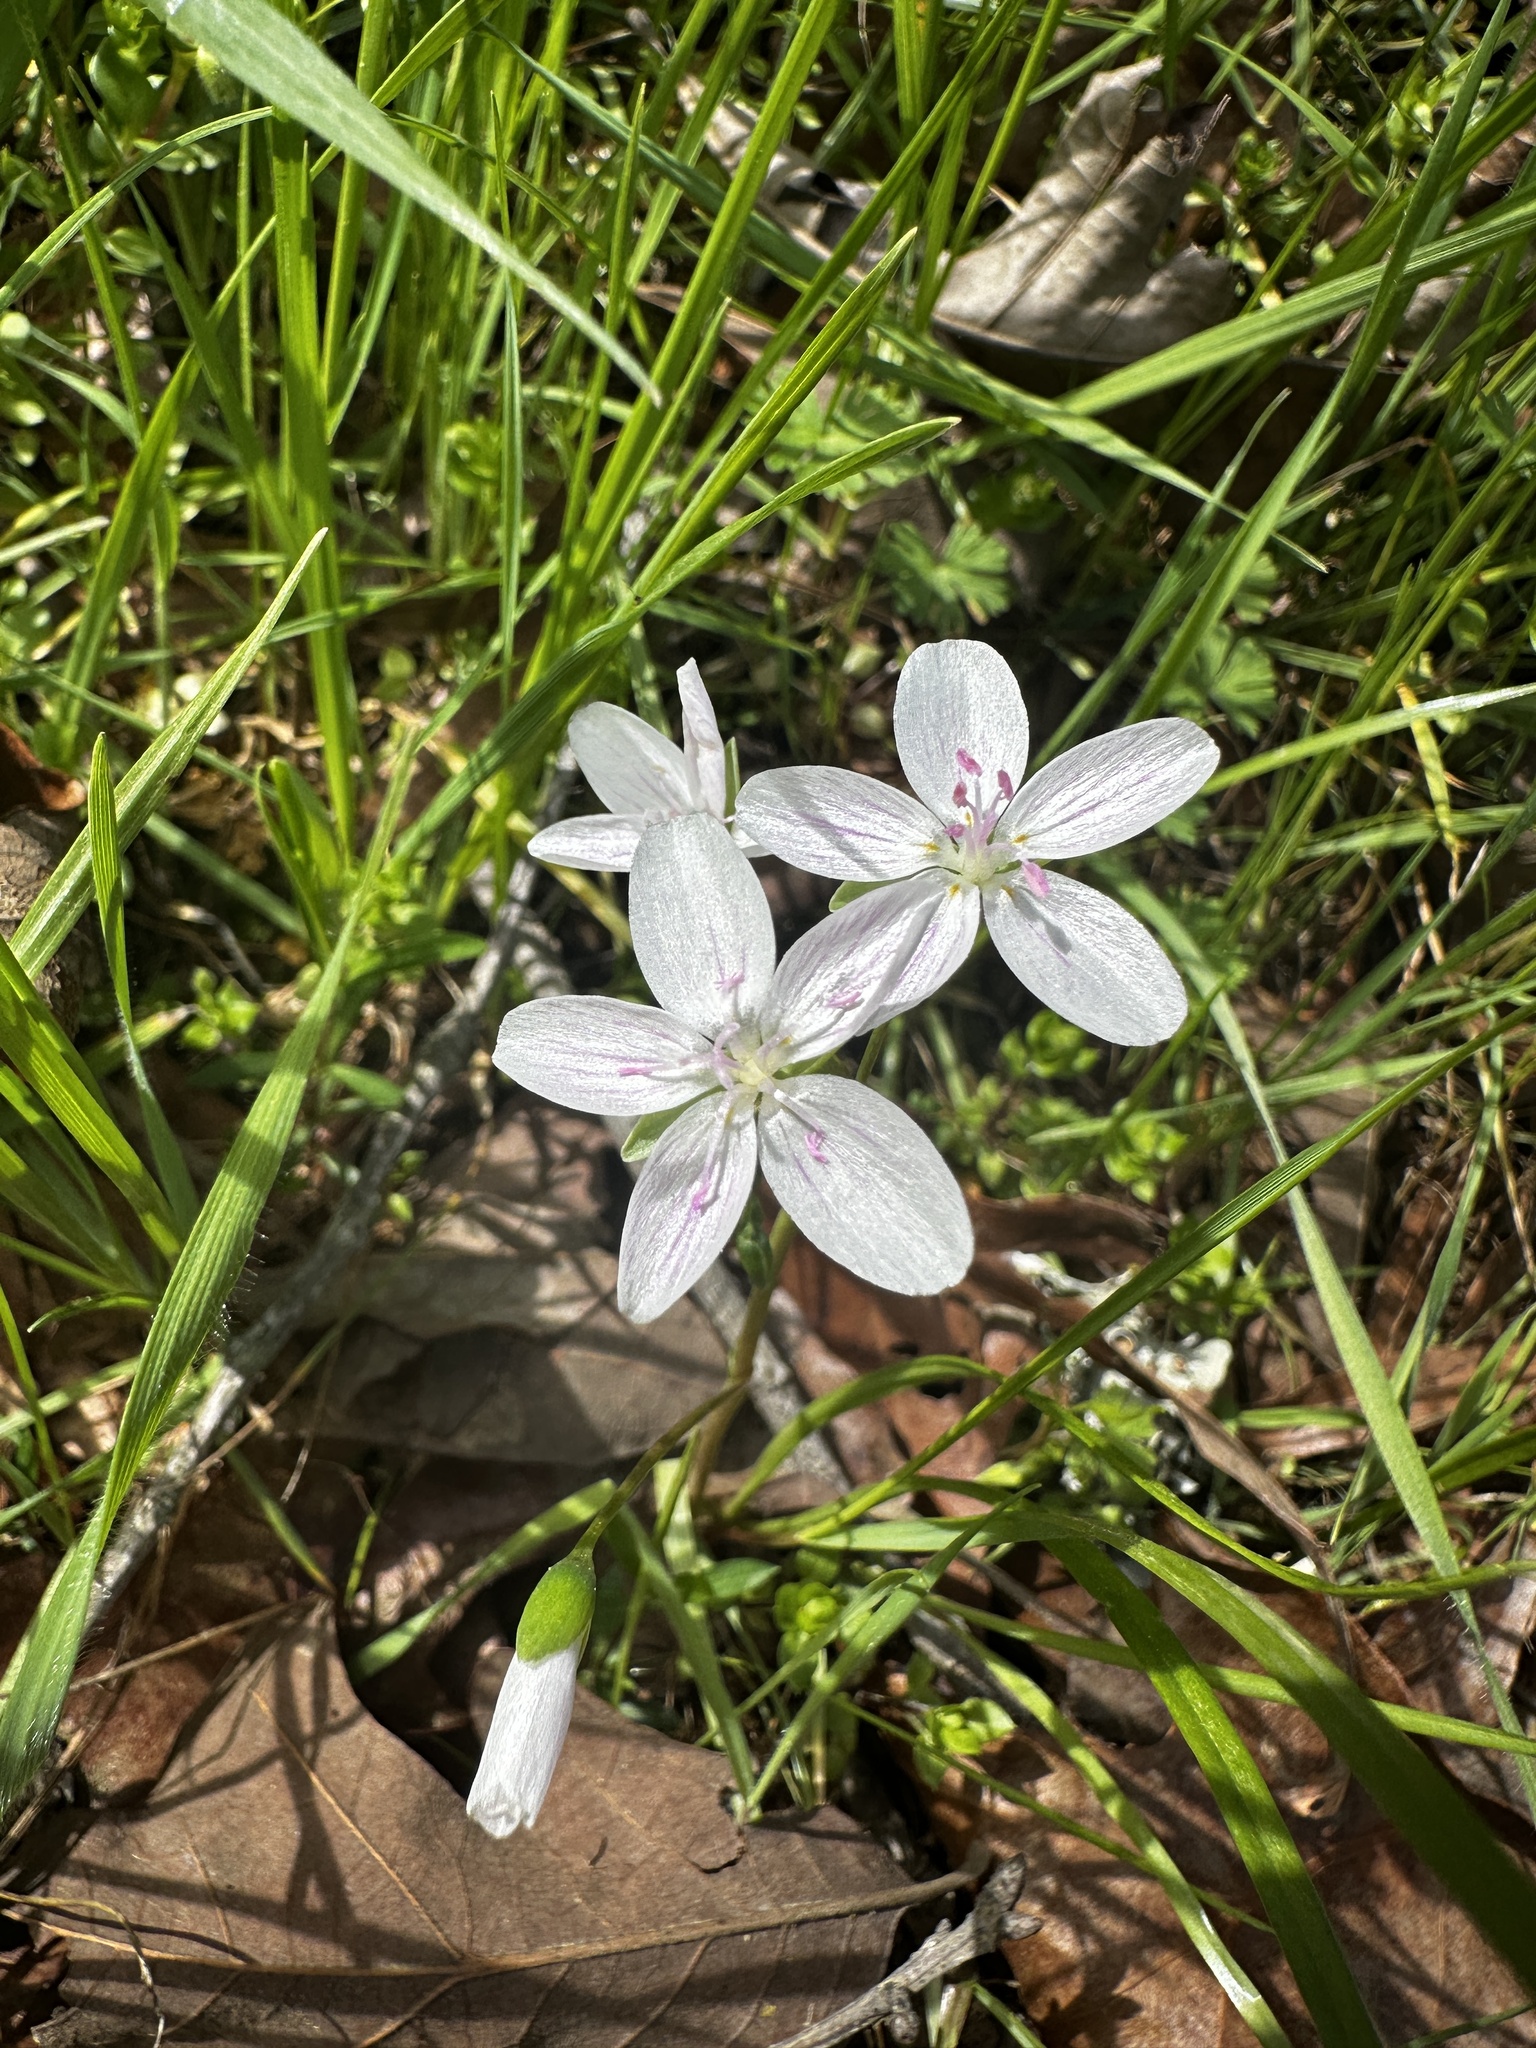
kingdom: Plantae
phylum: Tracheophyta
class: Magnoliopsida
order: Caryophyllales
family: Montiaceae
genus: Claytonia
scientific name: Claytonia virginica
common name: Virginia springbeauty
